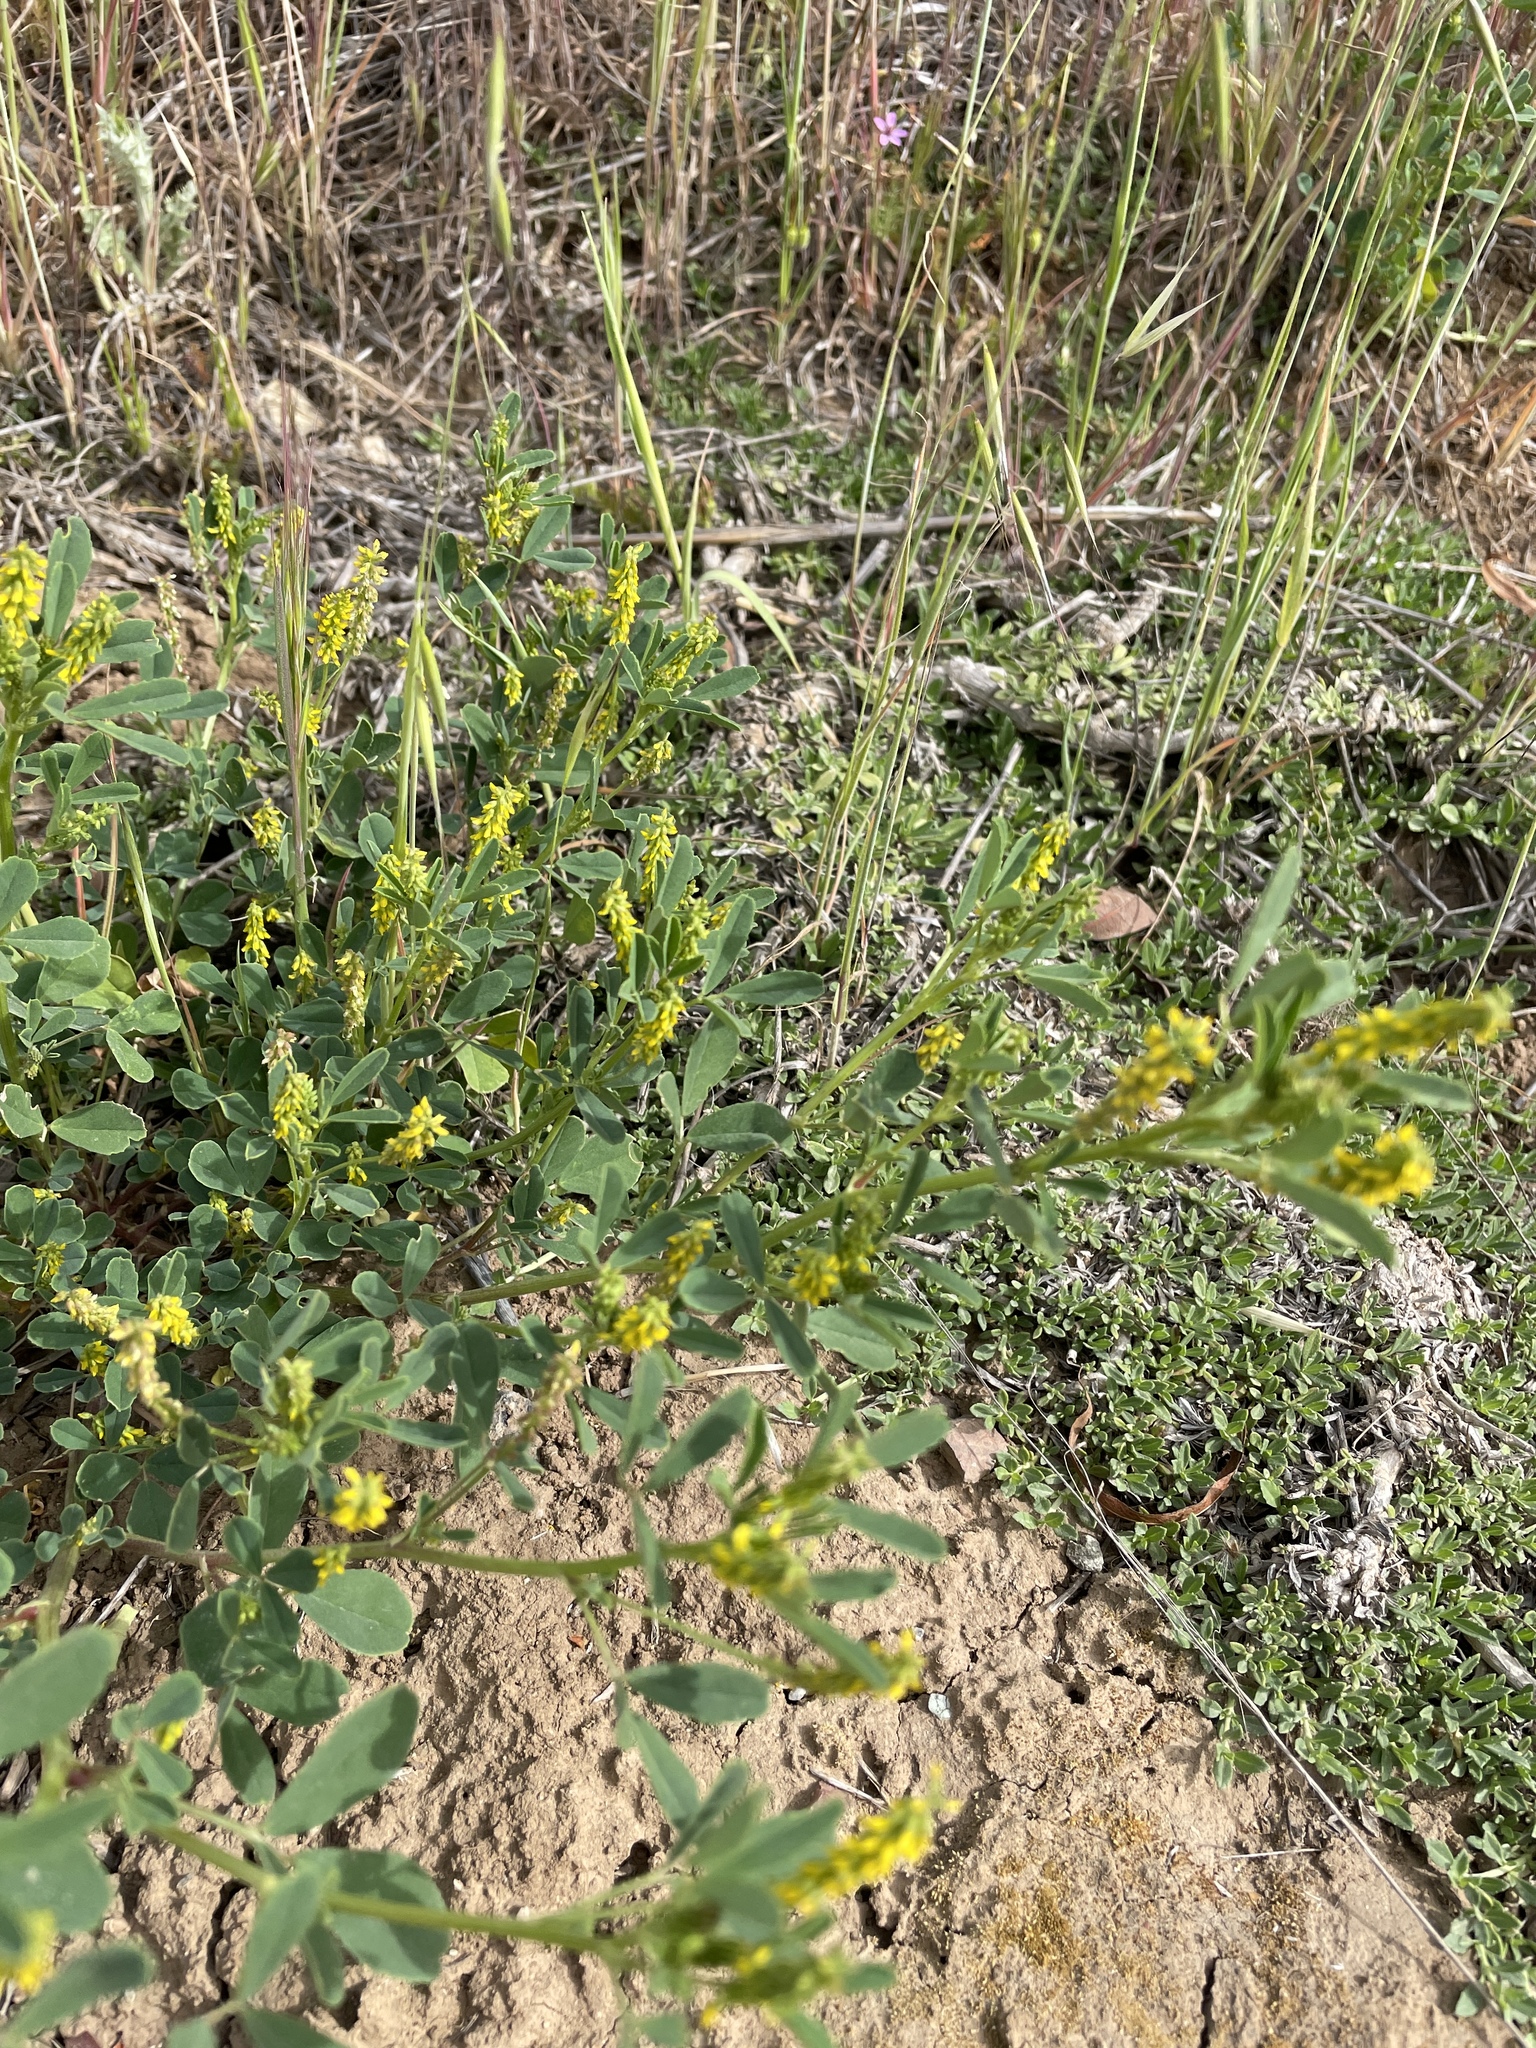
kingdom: Plantae
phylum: Tracheophyta
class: Magnoliopsida
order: Fabales
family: Fabaceae
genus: Melilotus
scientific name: Melilotus indicus
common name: Small melilot
